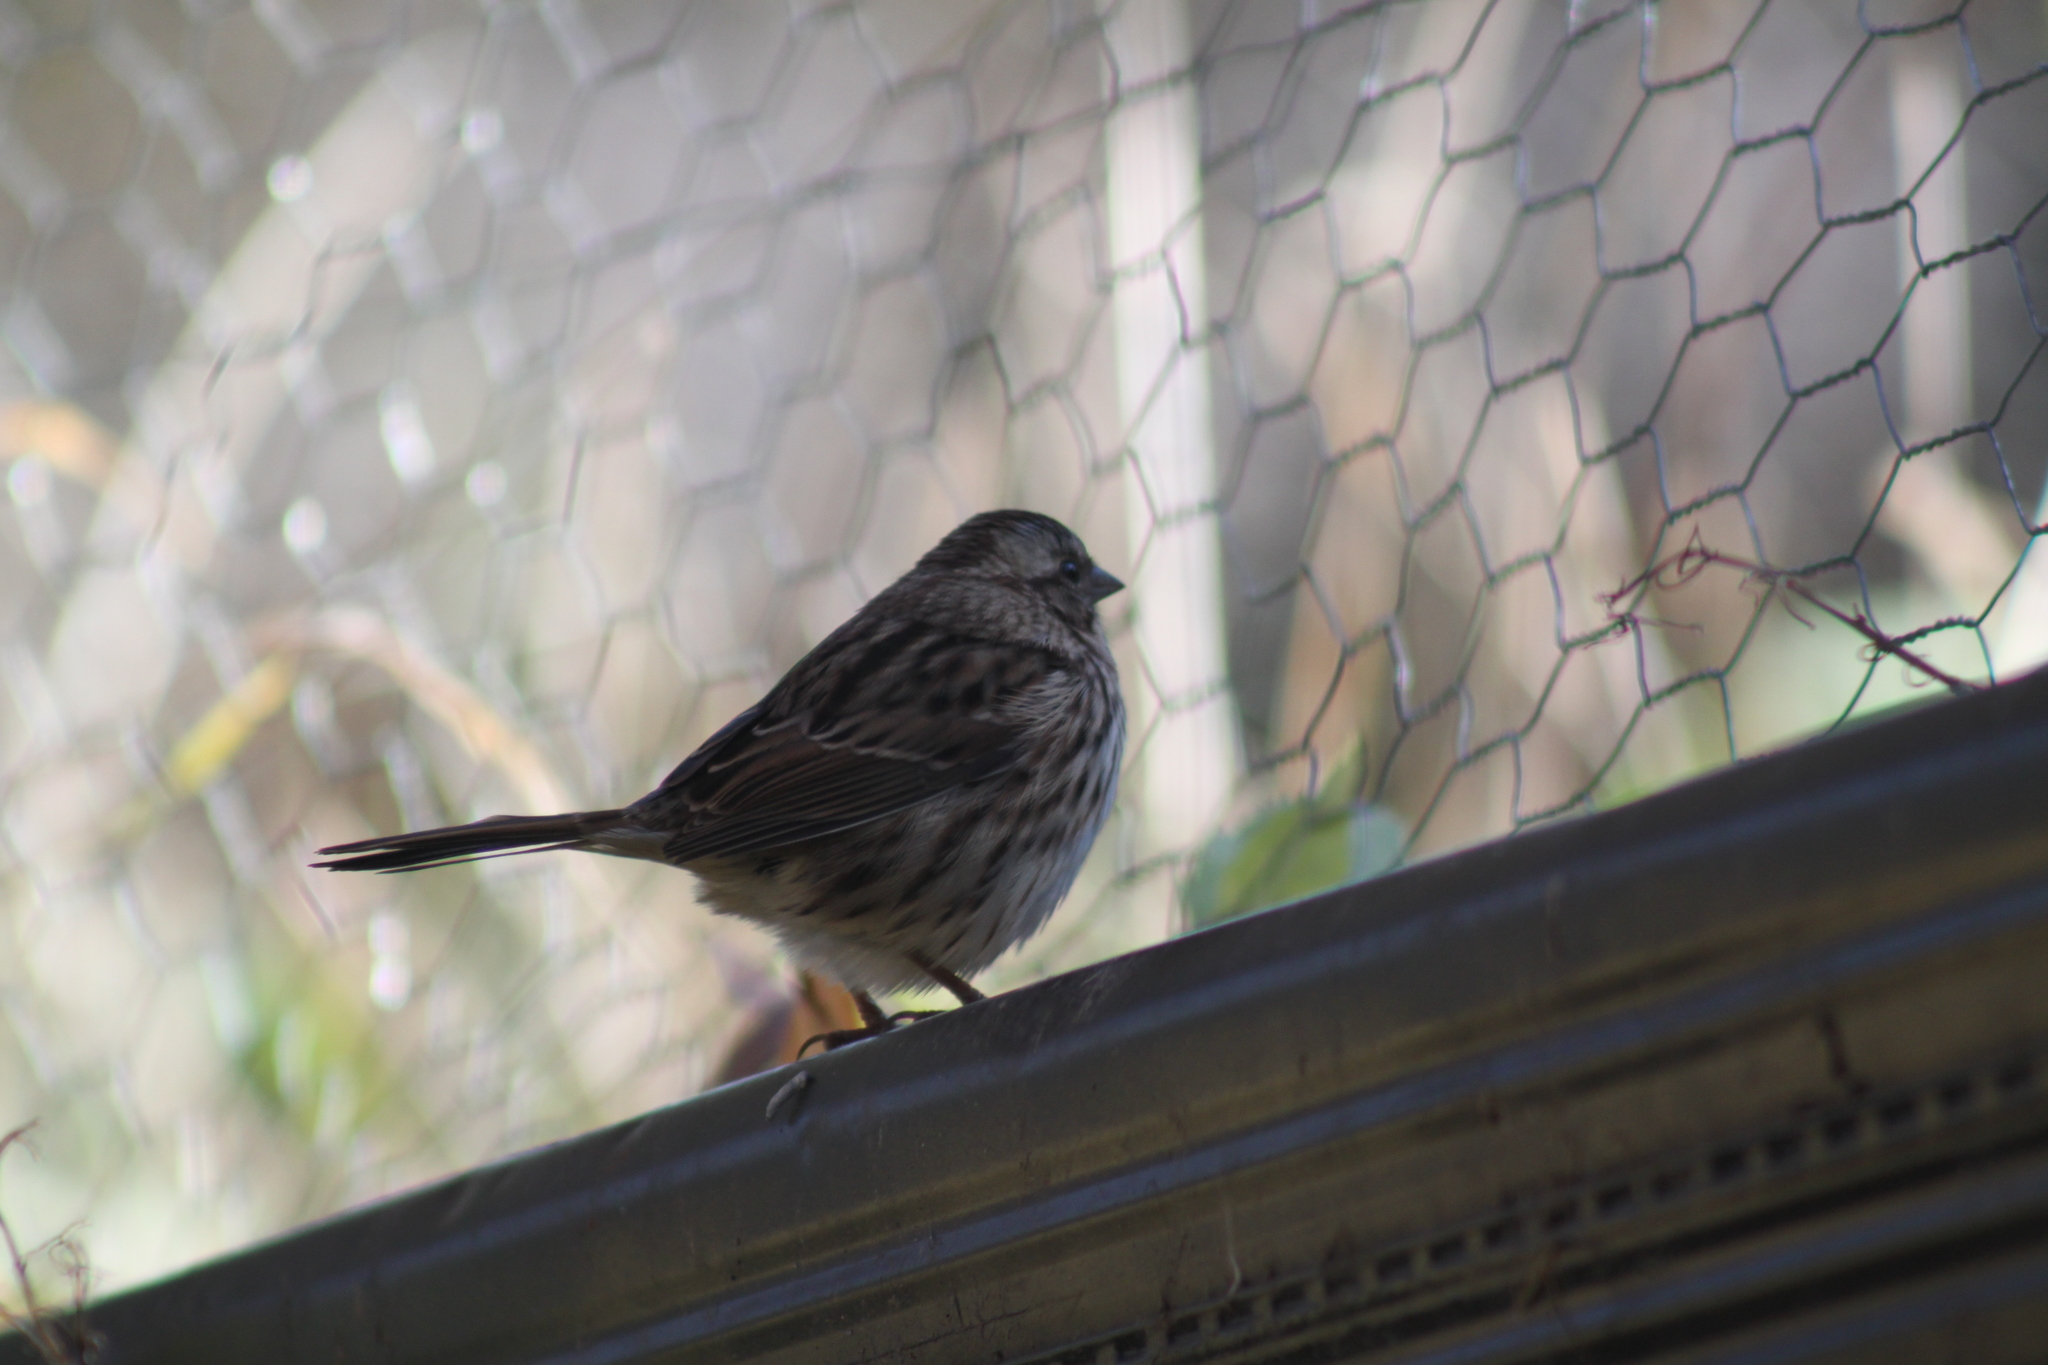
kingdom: Animalia
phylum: Chordata
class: Aves
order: Passeriformes
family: Passerellidae
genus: Melospiza
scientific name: Melospiza melodia
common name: Song sparrow
